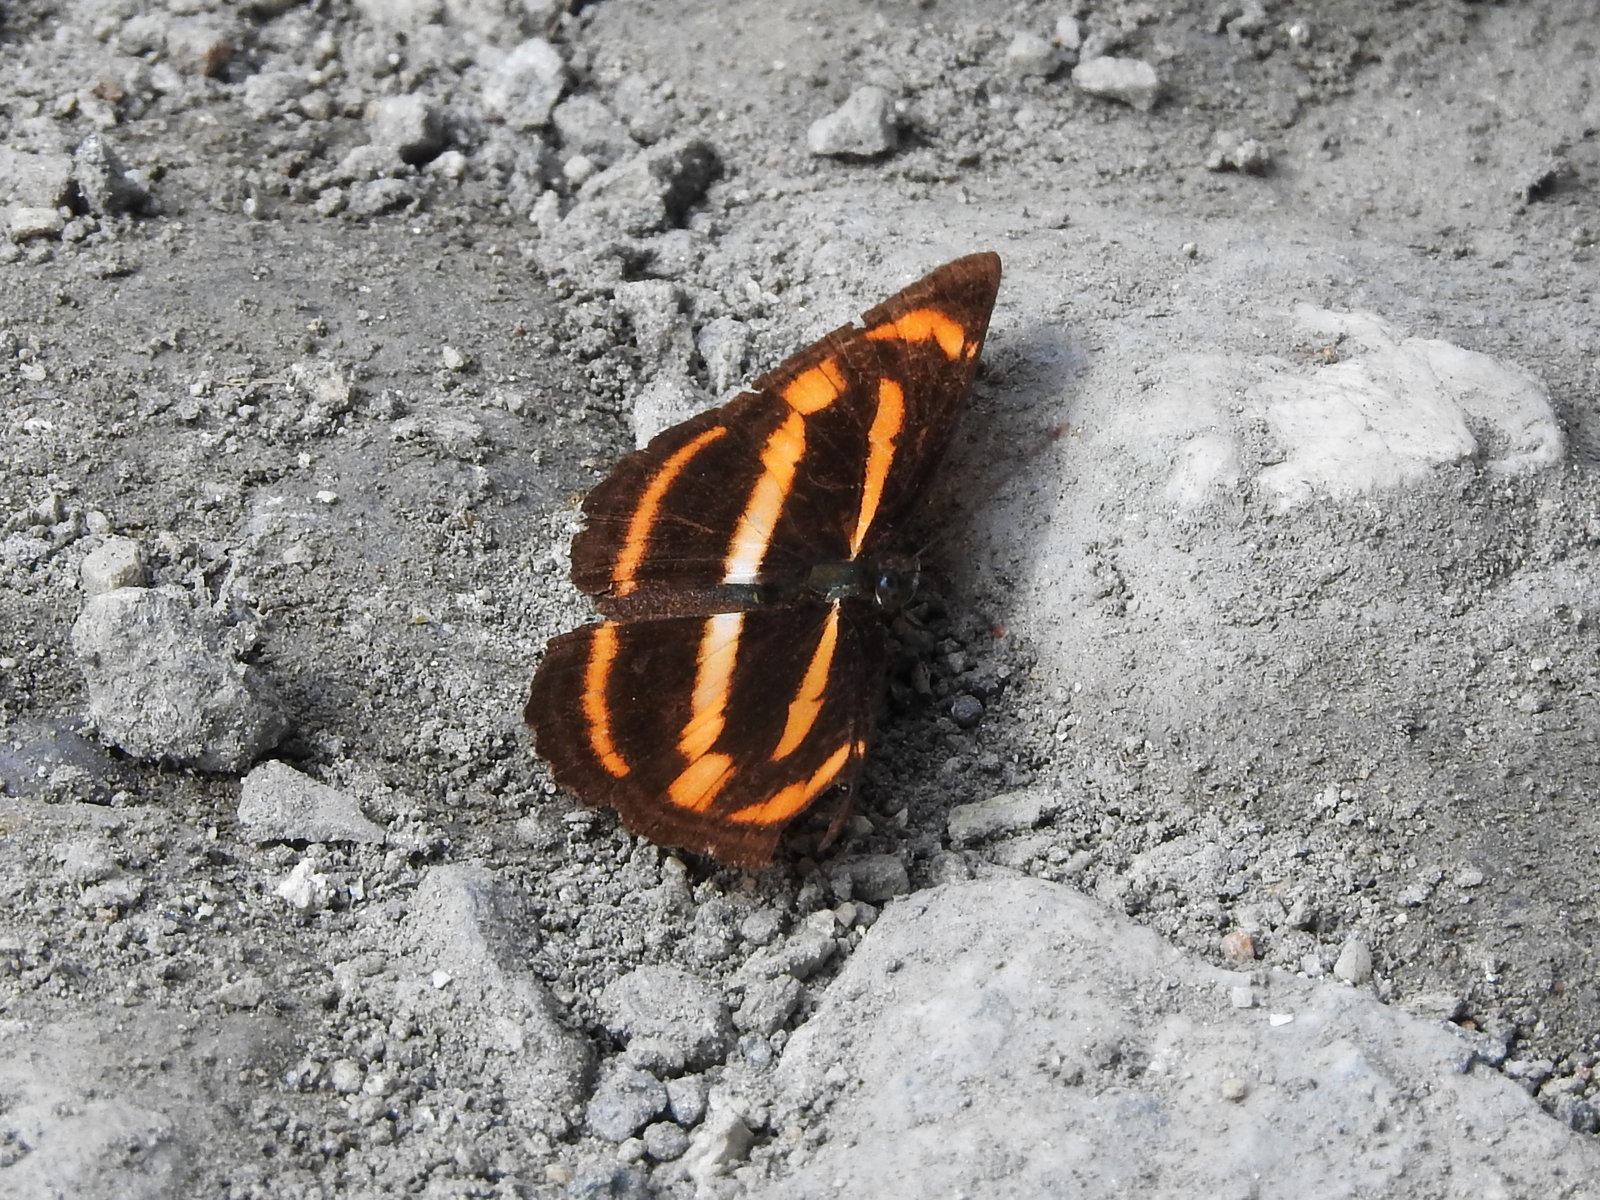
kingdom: Animalia
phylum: Arthropoda
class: Insecta
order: Lepidoptera
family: Nymphalidae
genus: Neptis
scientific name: Neptis miah
